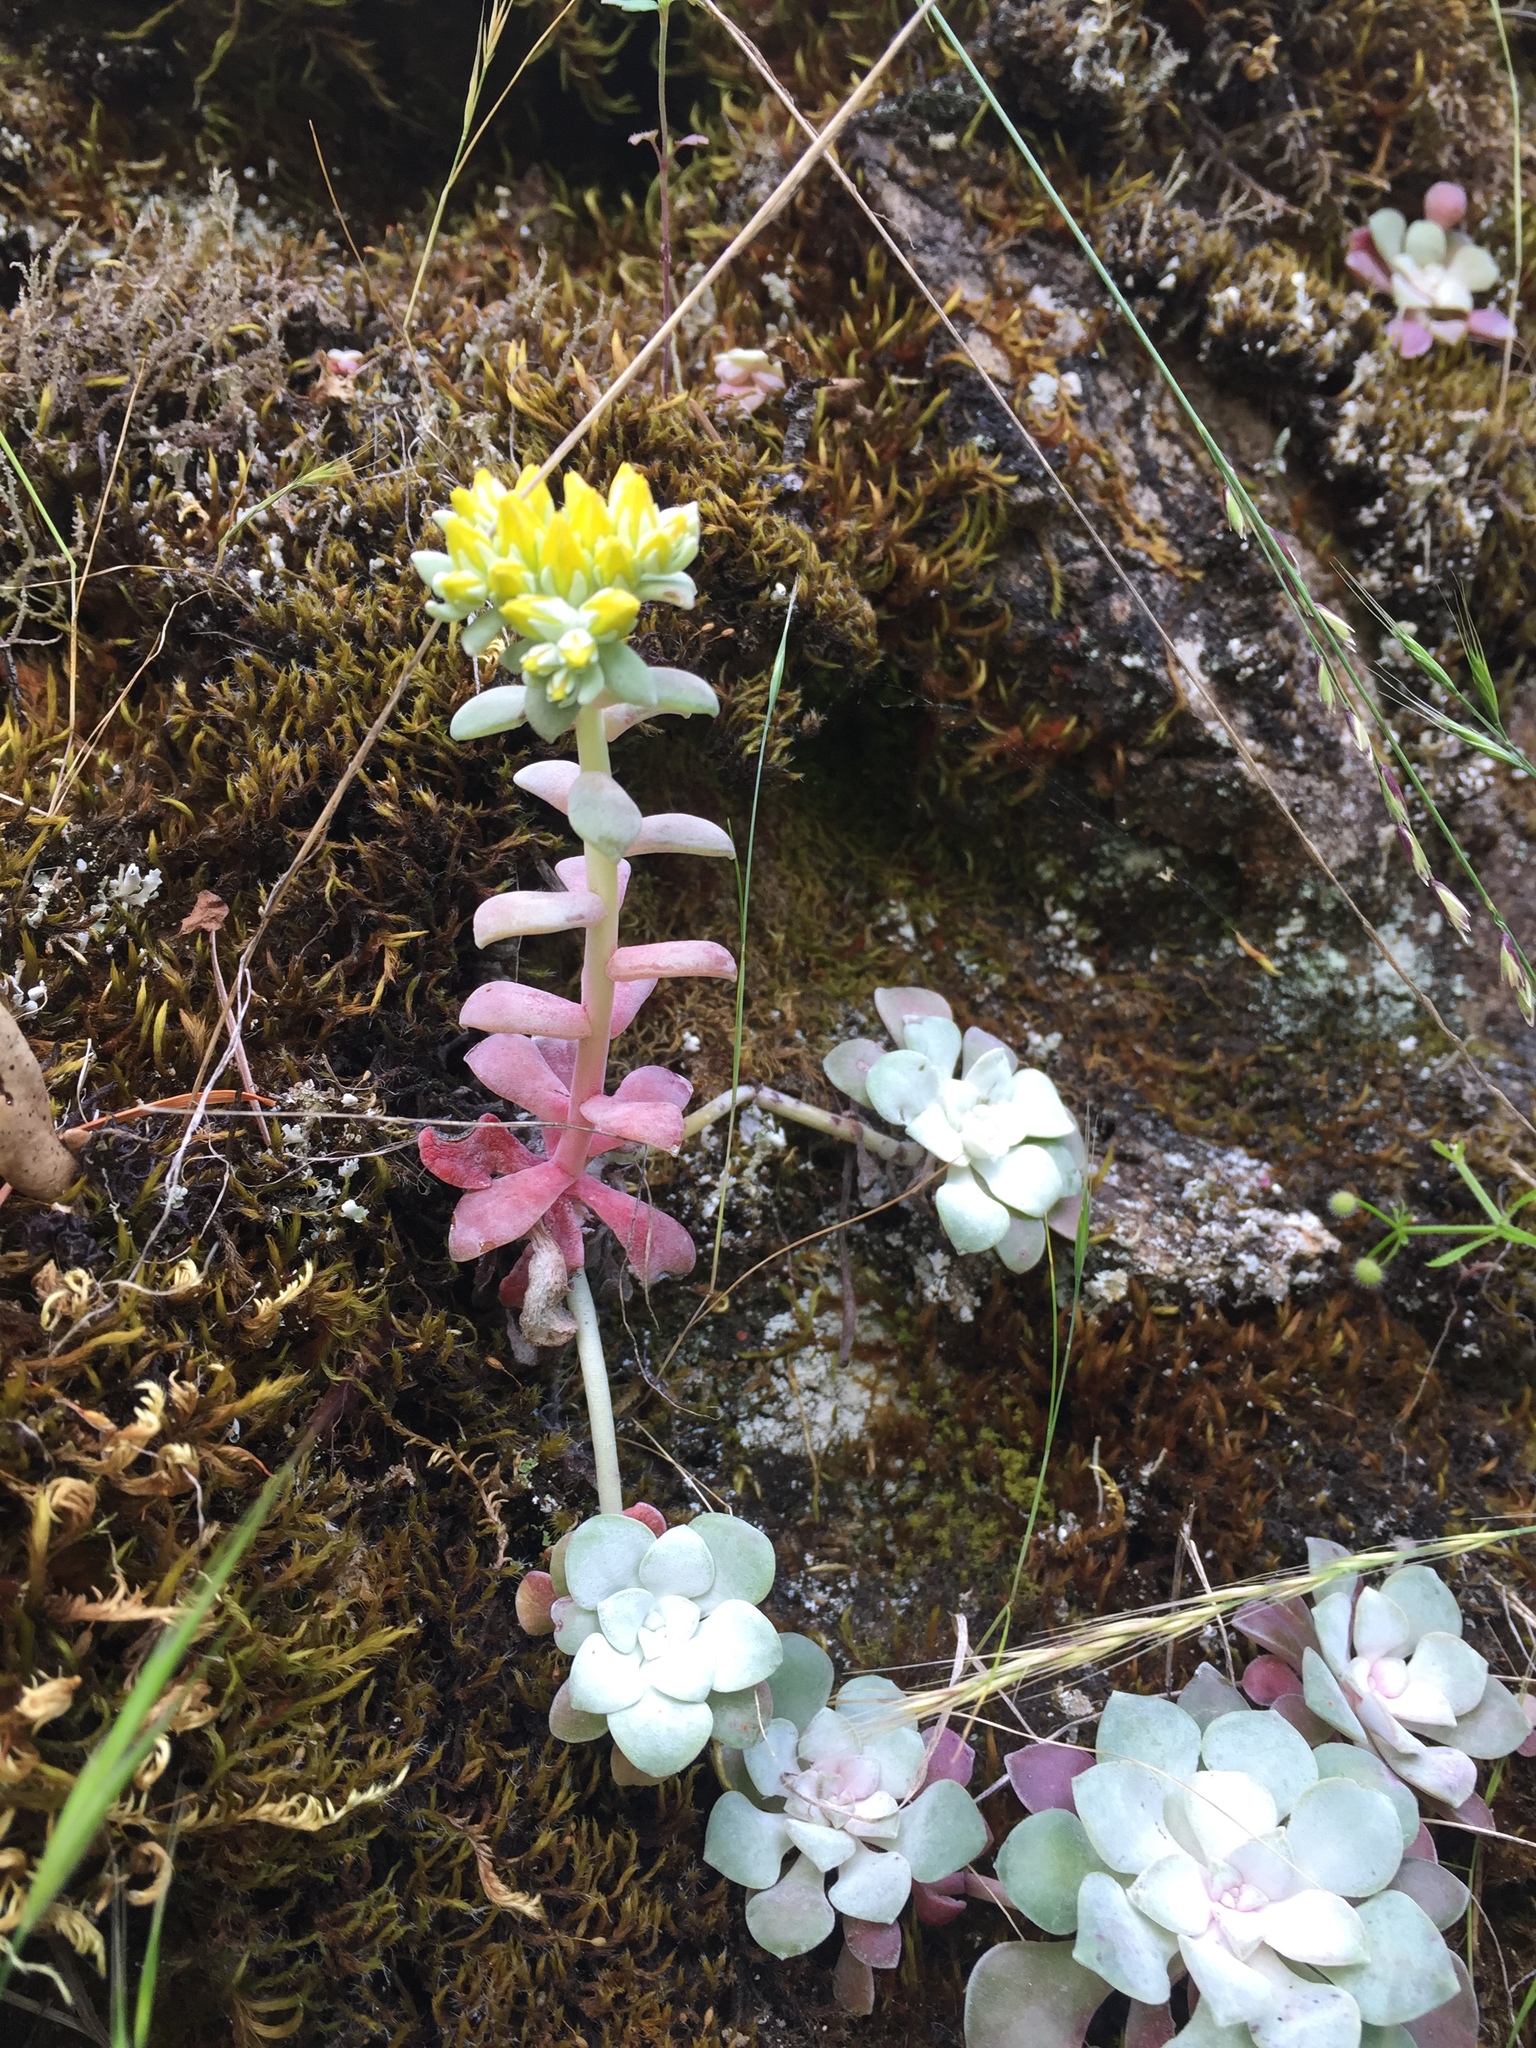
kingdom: Plantae
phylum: Tracheophyta
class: Magnoliopsida
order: Saxifragales
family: Crassulaceae
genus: Sedum
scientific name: Sedum spathulifolium
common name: Colorado stonecrop
